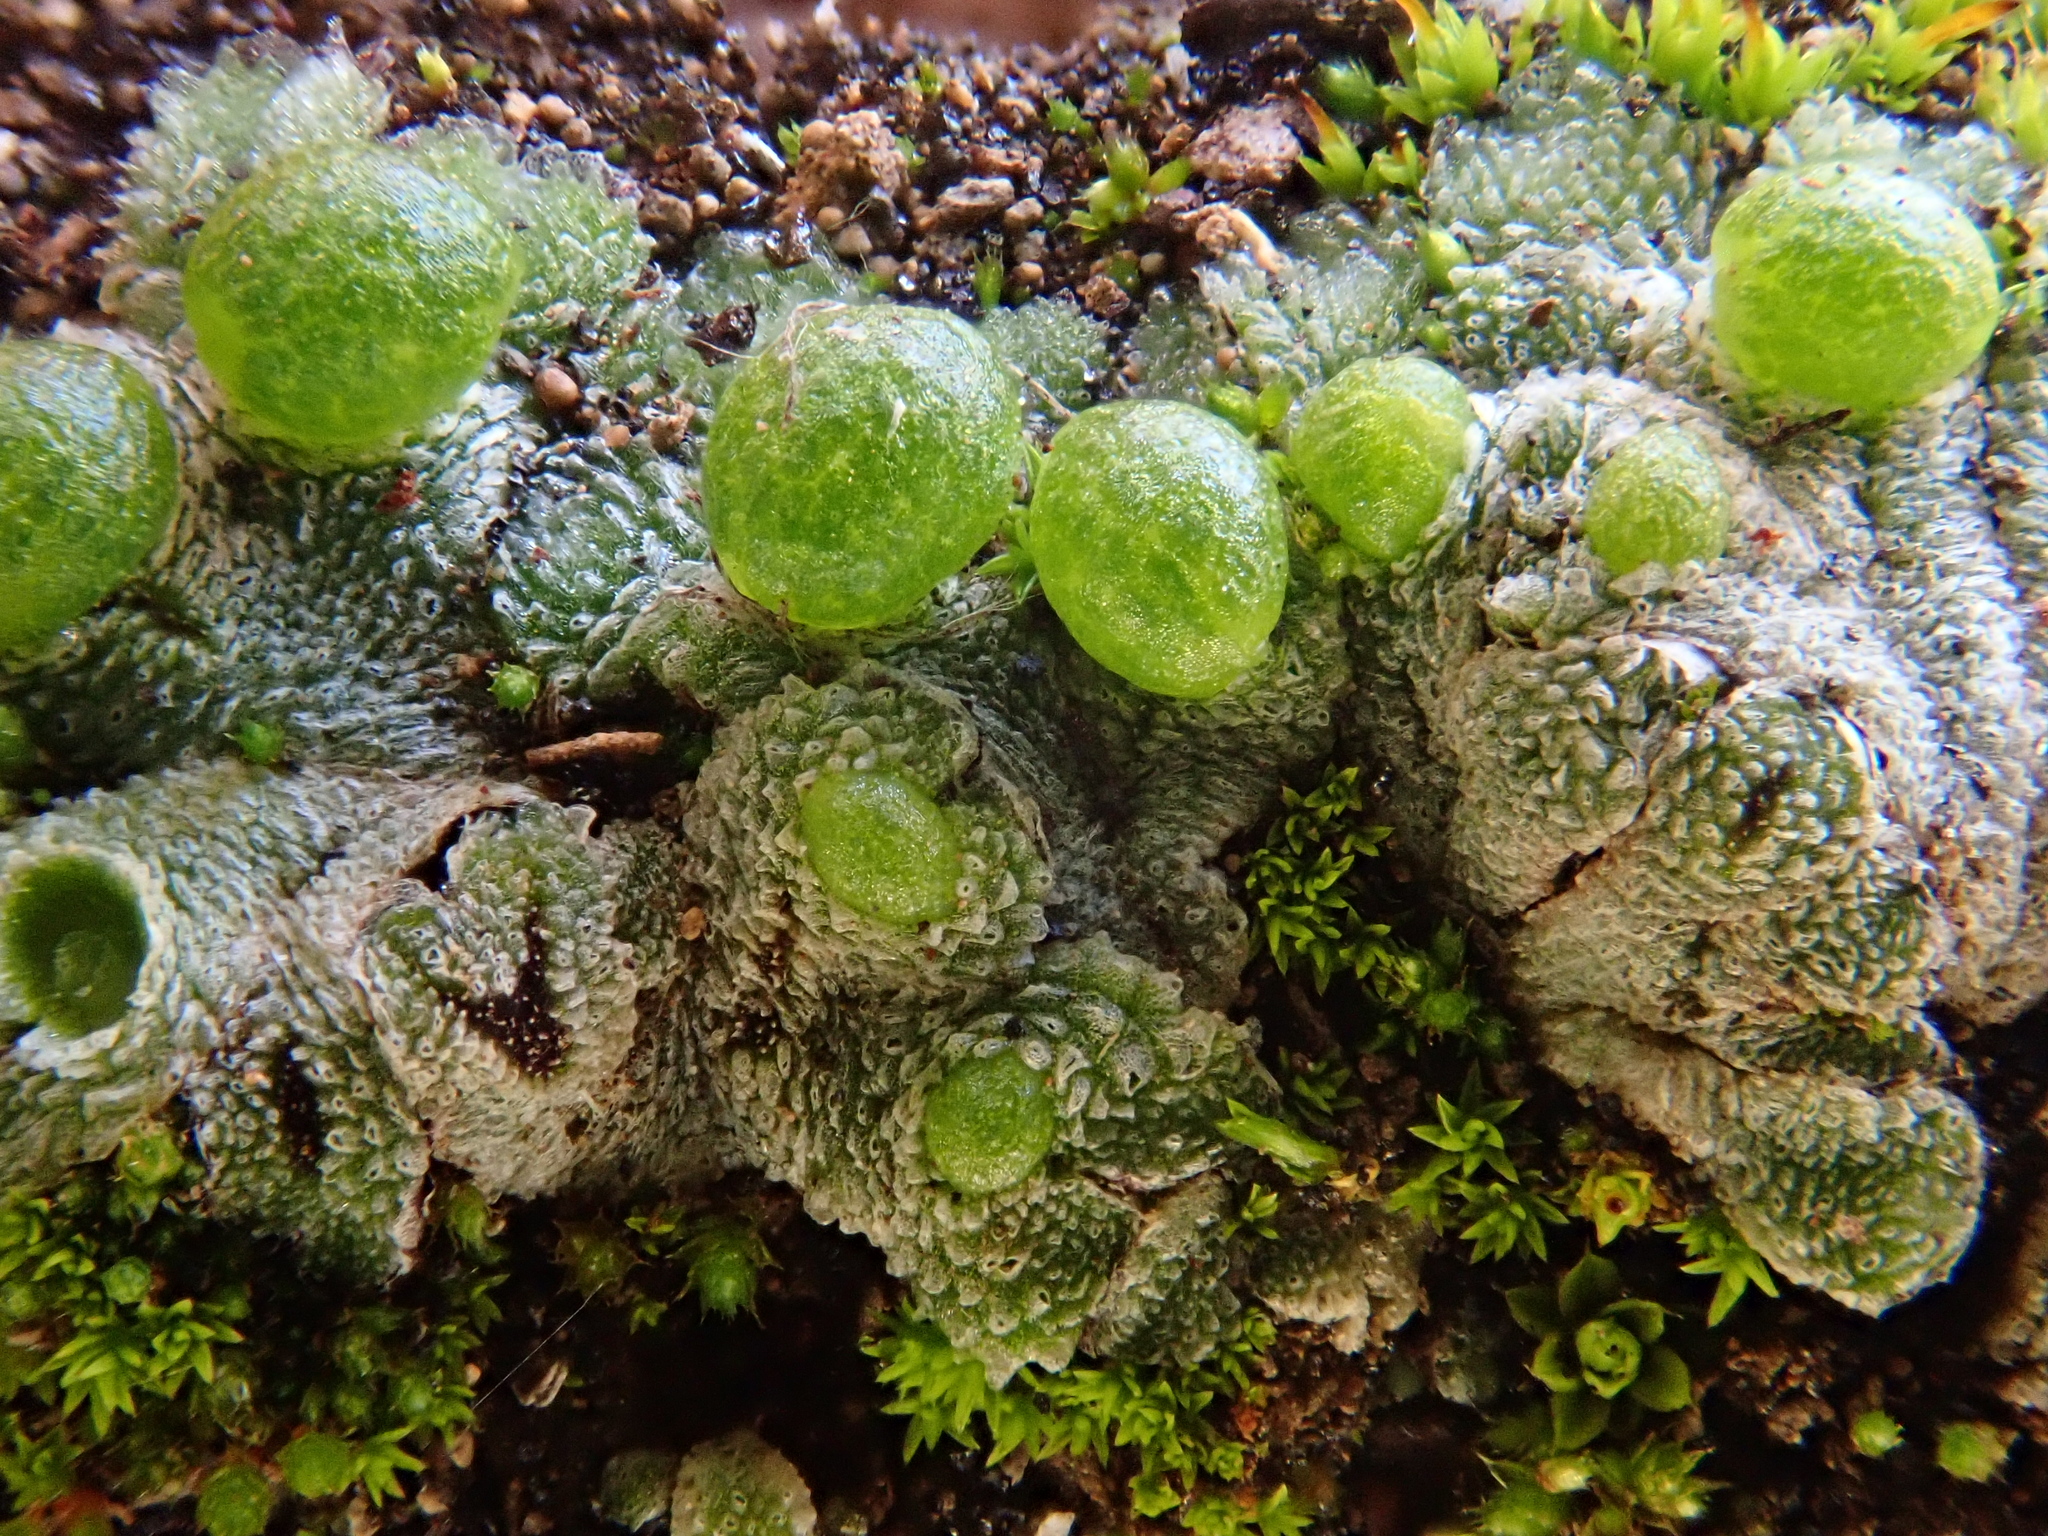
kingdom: Plantae
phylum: Marchantiophyta
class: Marchantiopsida
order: Marchantiales
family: Corsiniaceae
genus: Exormotheca
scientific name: Exormotheca pustulosa
